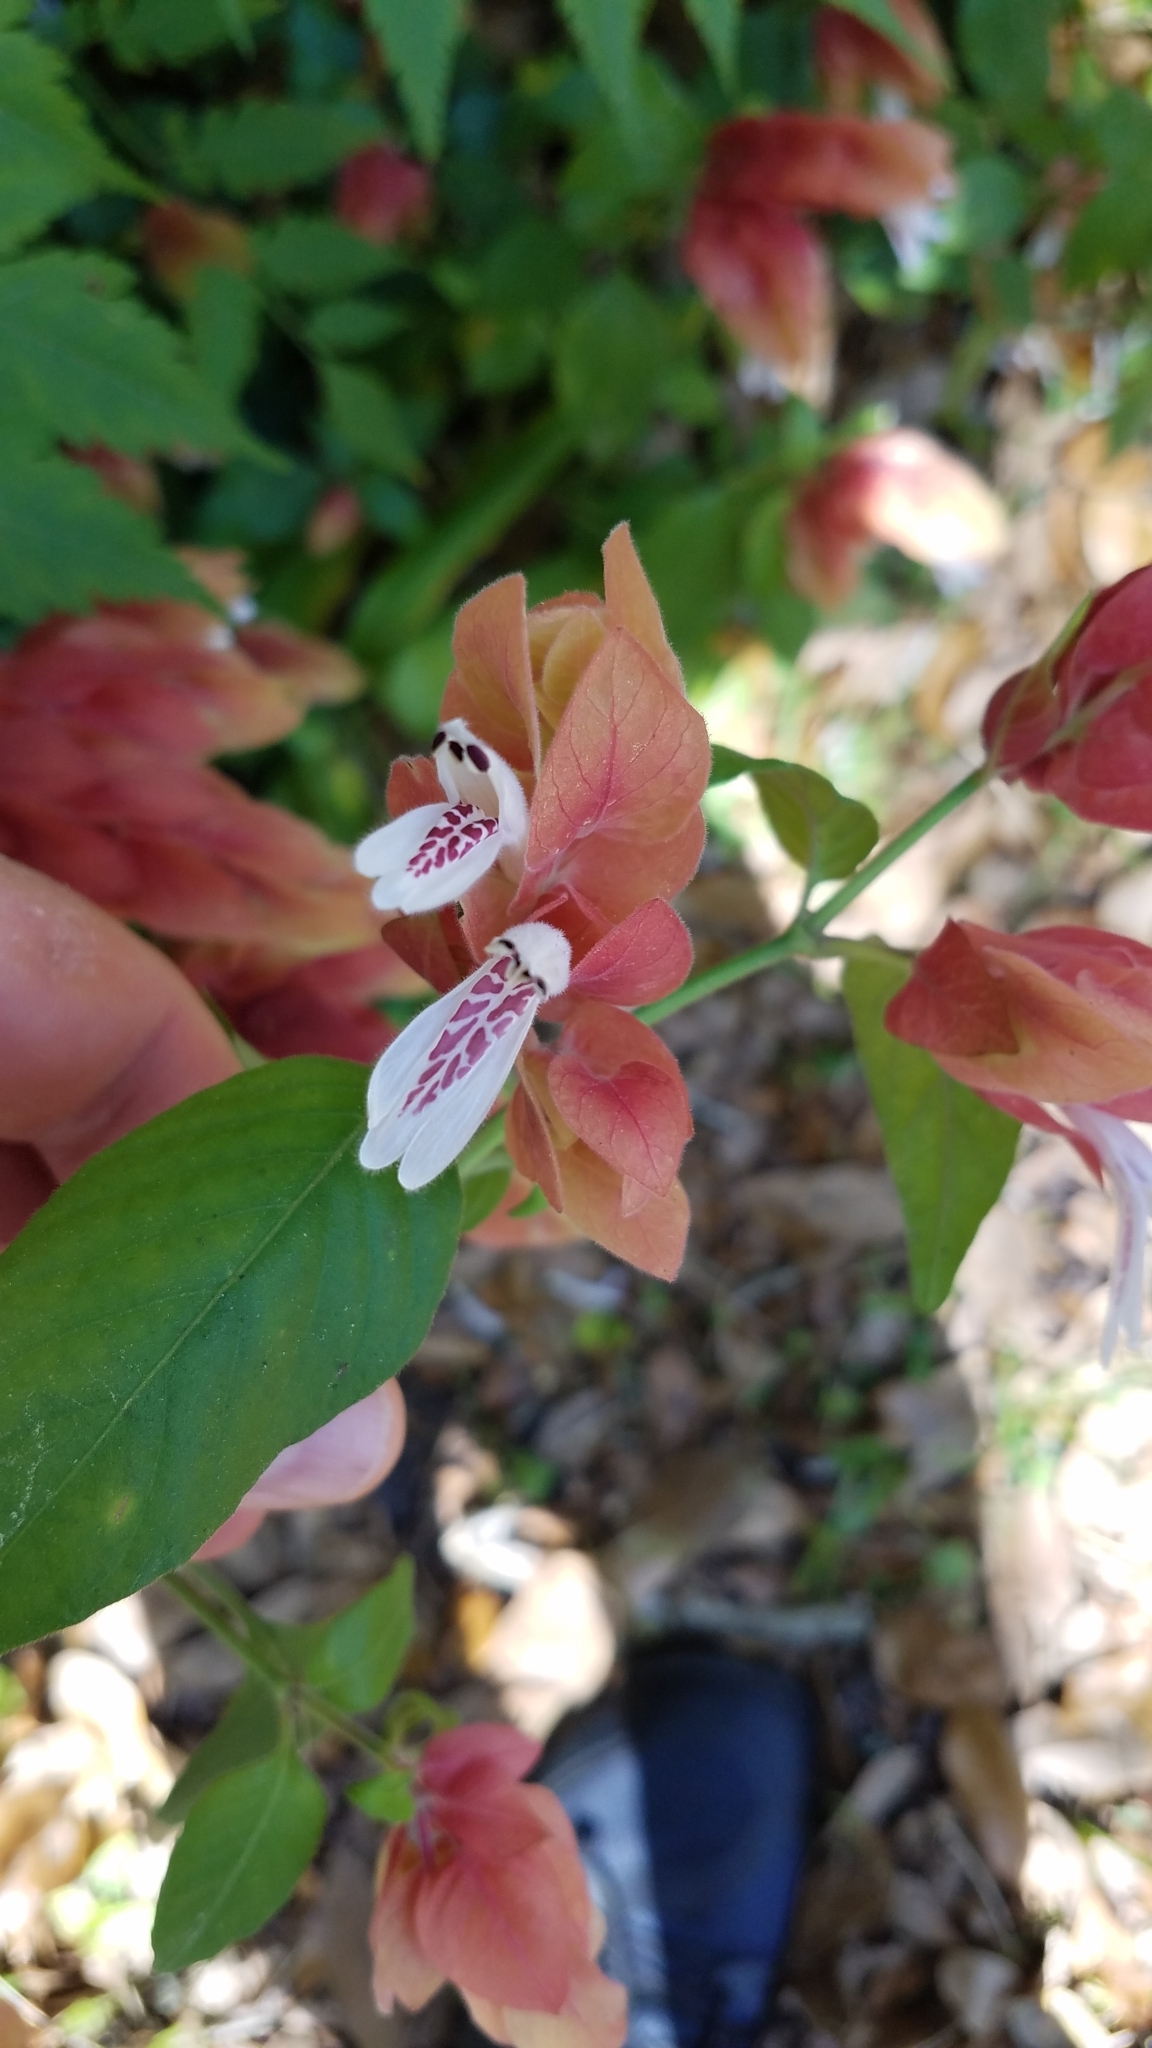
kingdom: Plantae
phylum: Tracheophyta
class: Magnoliopsida
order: Lamiales
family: Acanthaceae
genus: Justicia
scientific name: Justicia brandegeeana
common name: Shrimpplant
